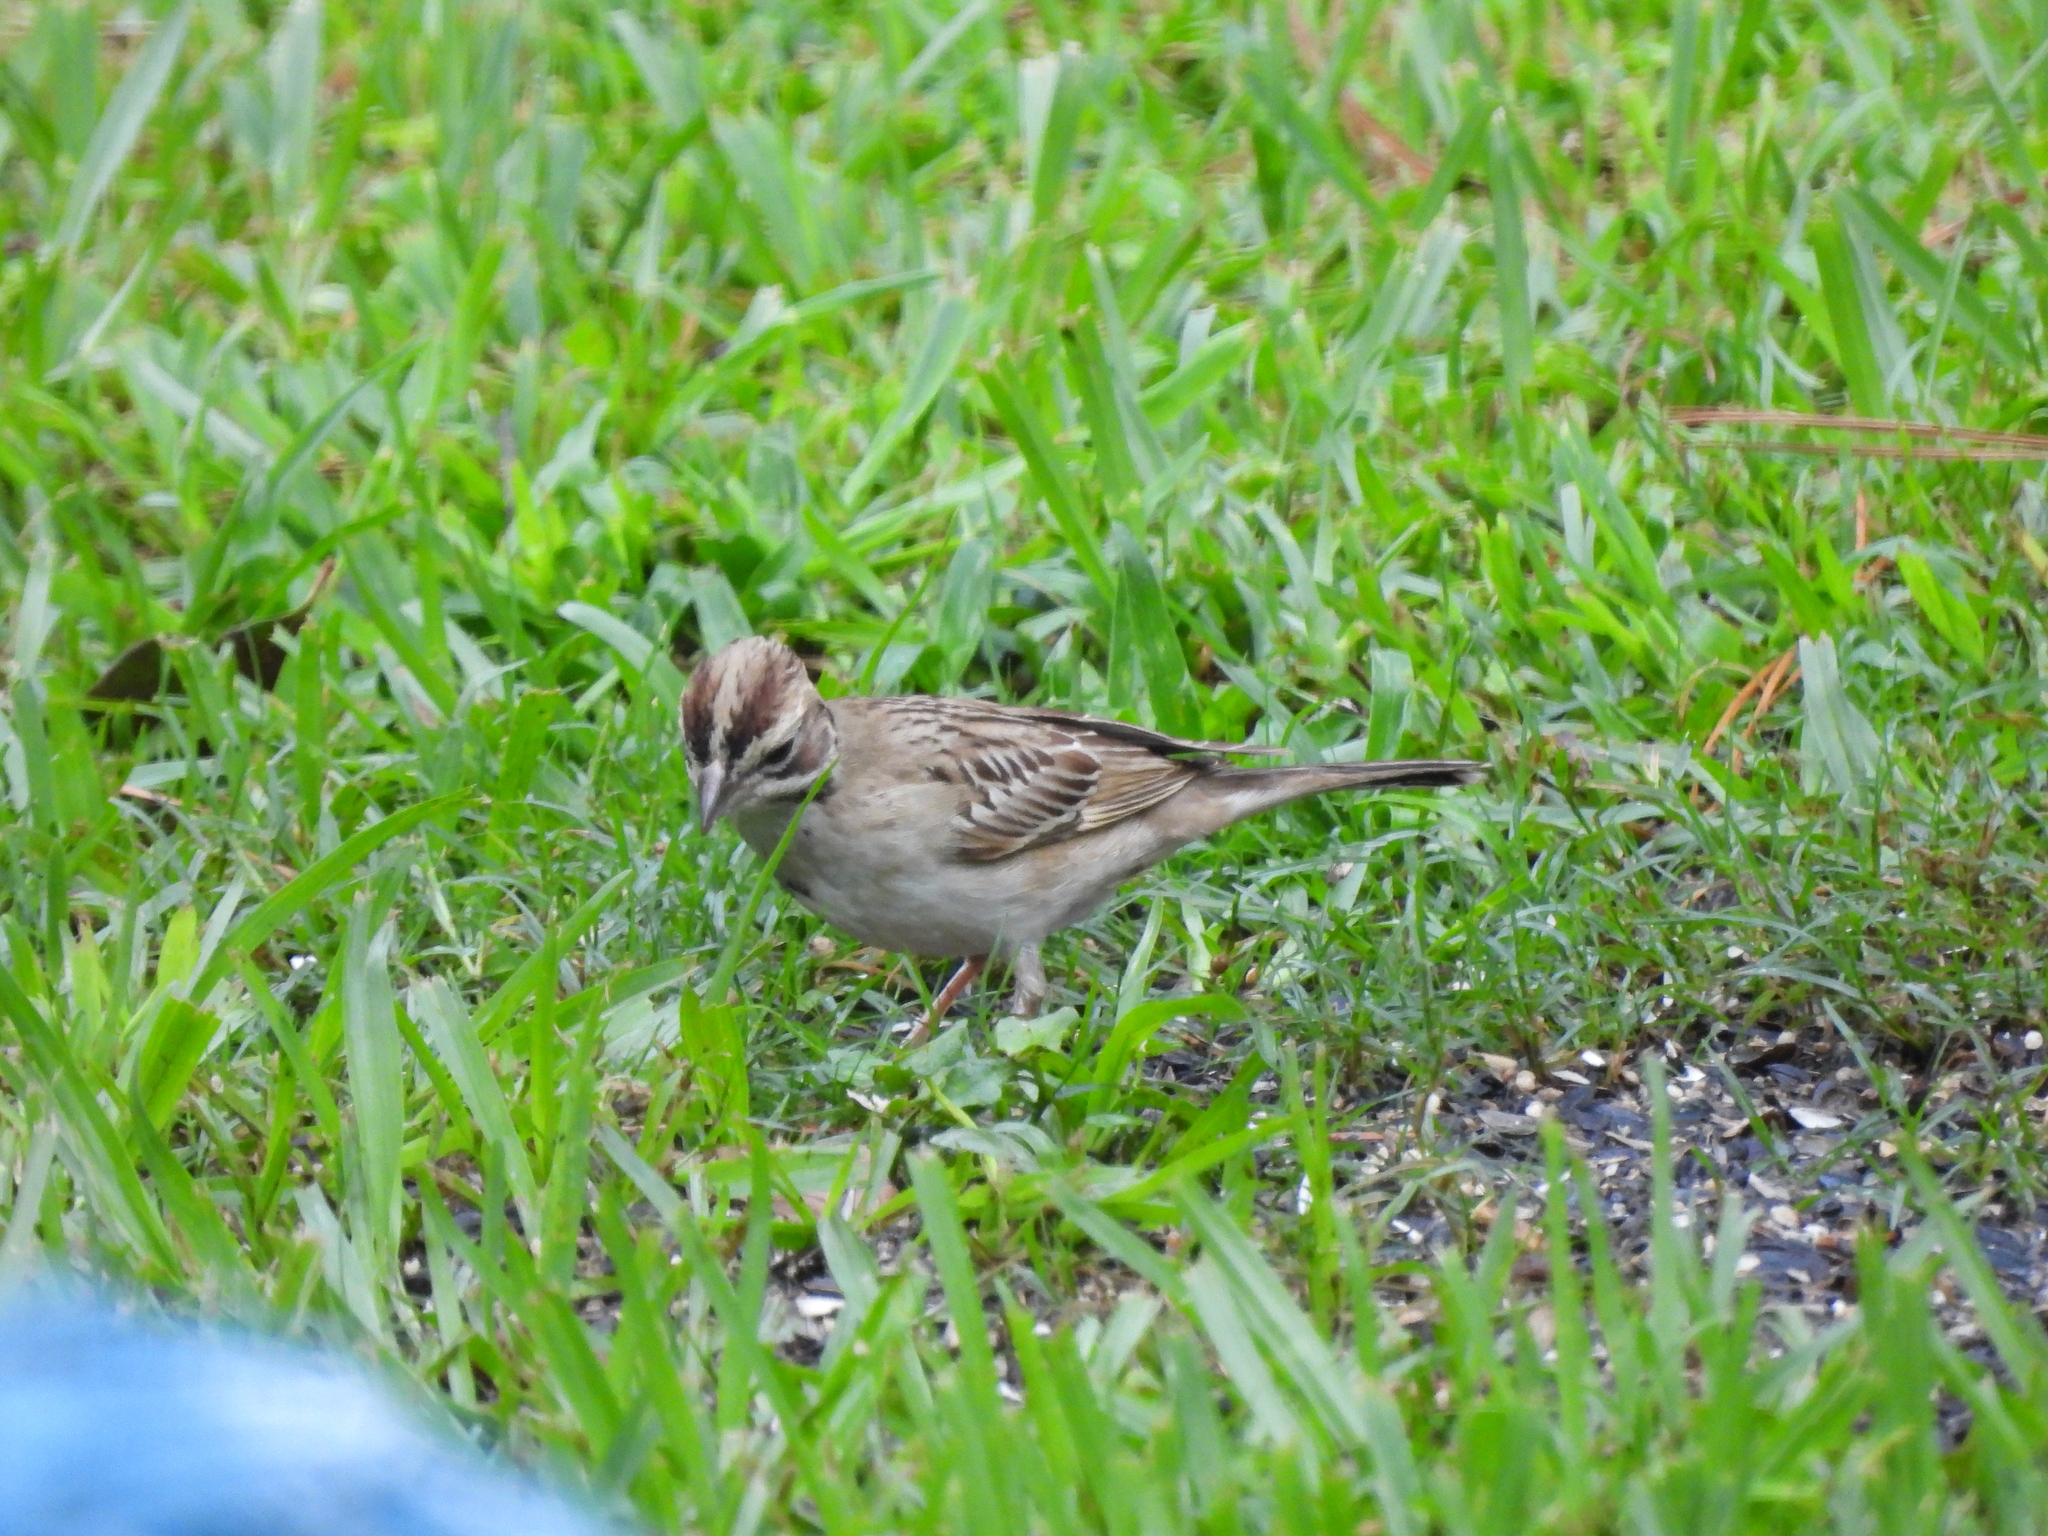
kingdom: Animalia
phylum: Chordata
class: Aves
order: Passeriformes
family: Passerellidae
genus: Chondestes
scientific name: Chondestes grammacus
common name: Lark sparrow
